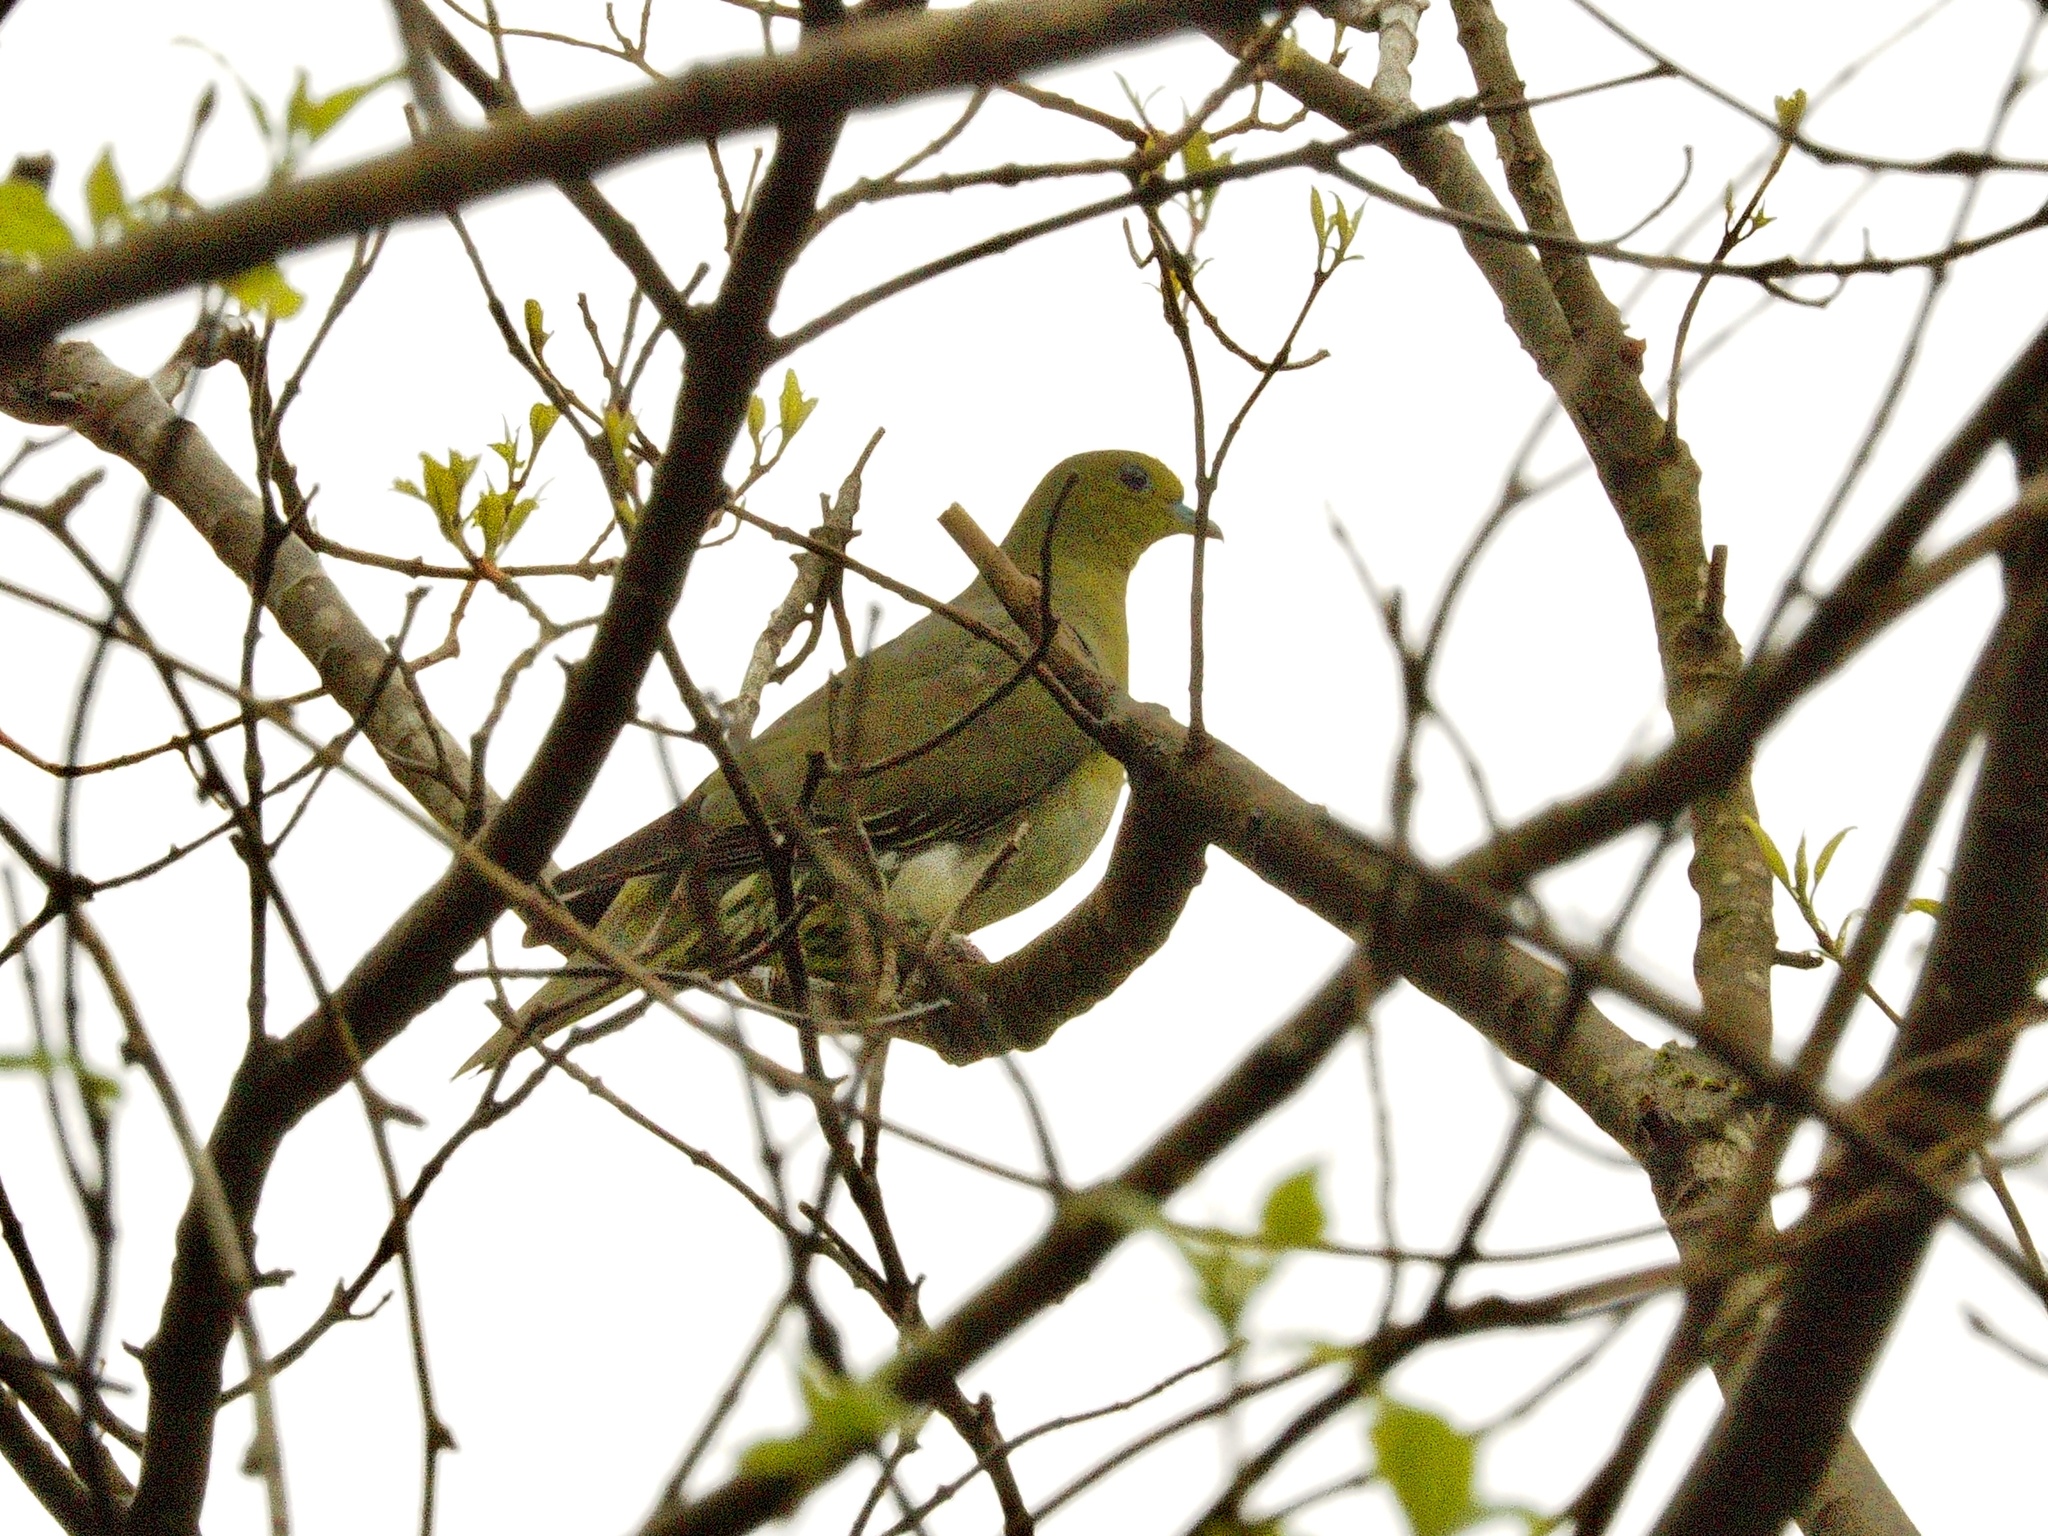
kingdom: Animalia
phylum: Chordata
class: Aves
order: Columbiformes
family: Columbidae
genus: Treron
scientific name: Treron sieboldii
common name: White-bellied green pigeon
